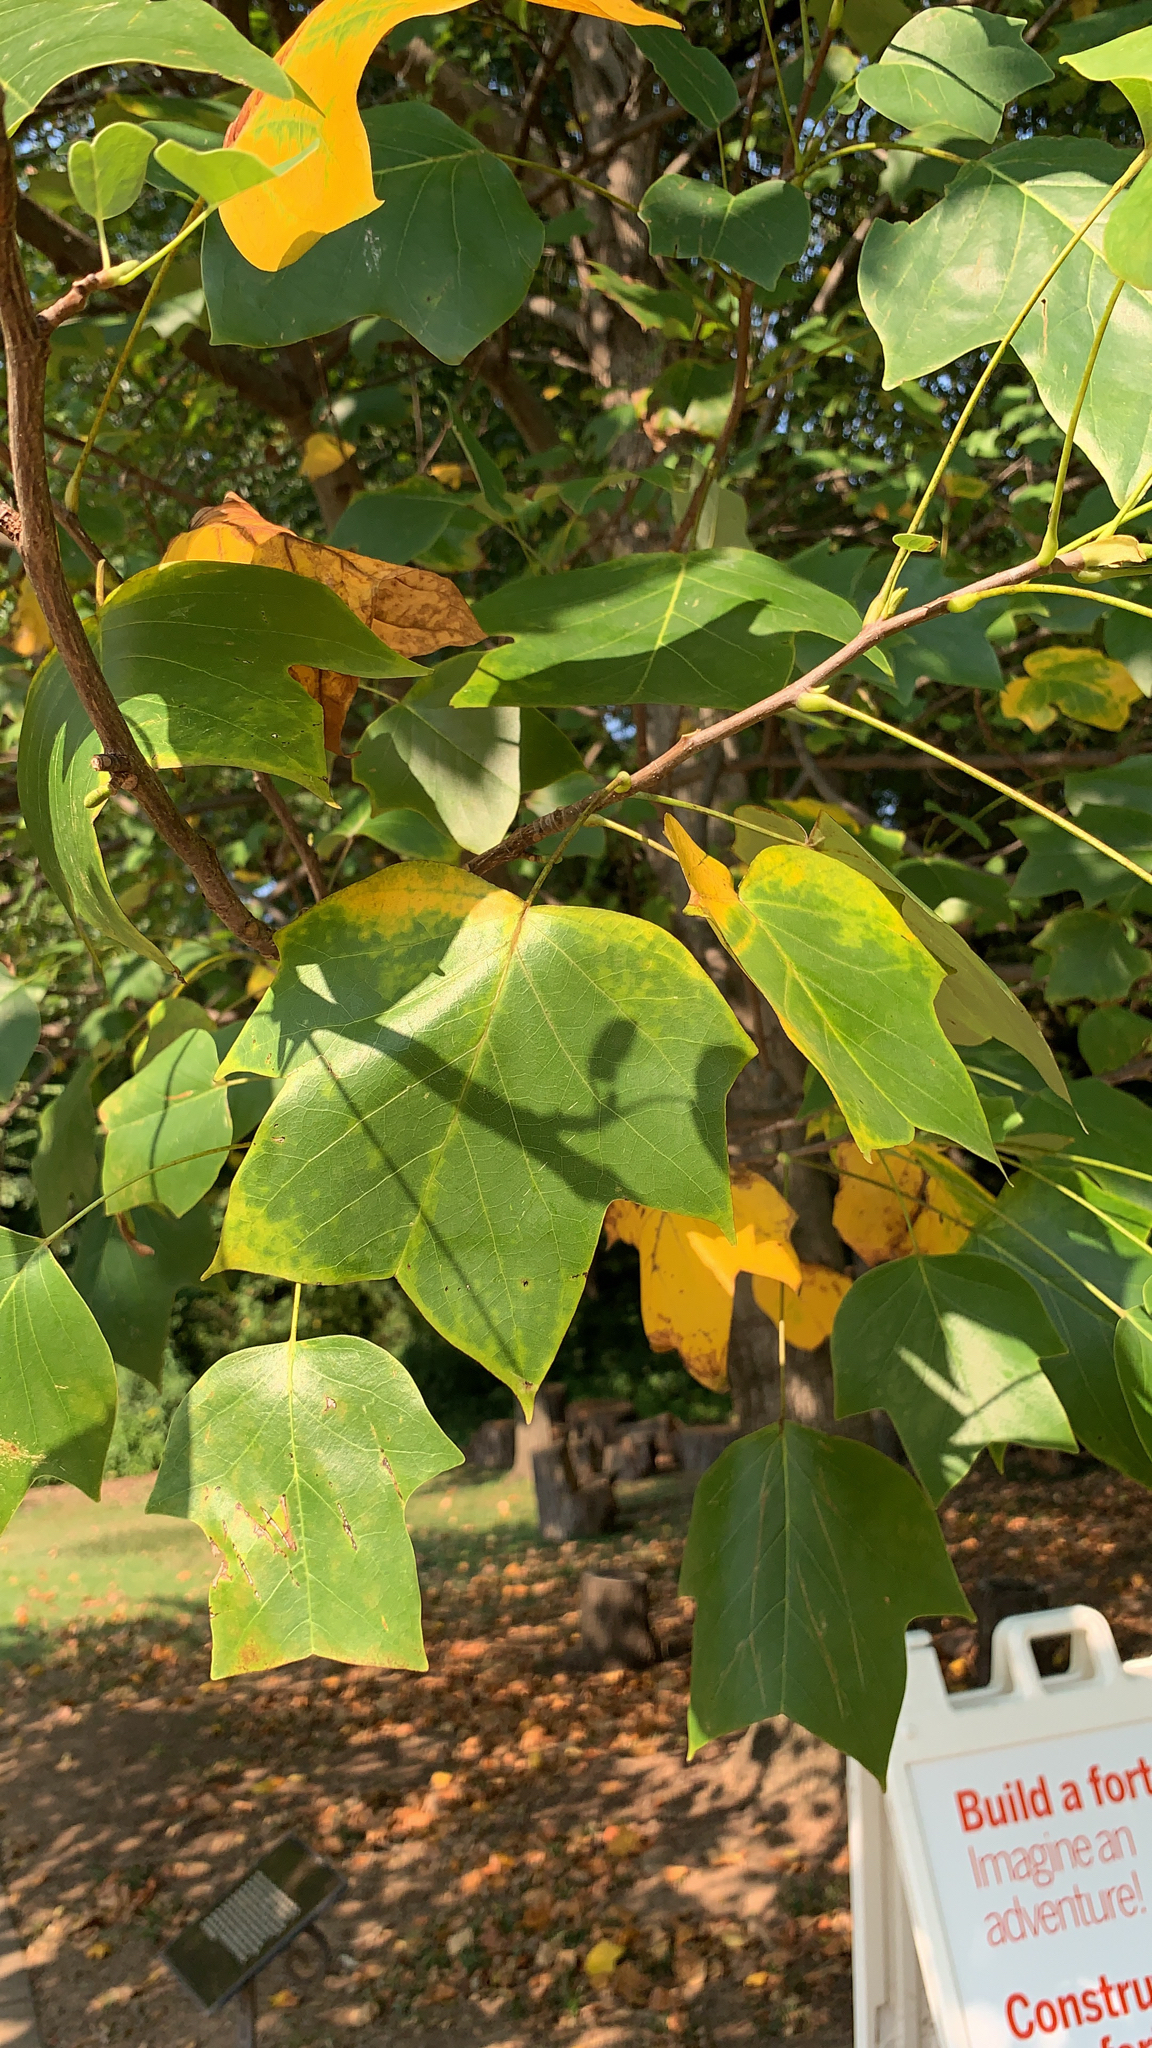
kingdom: Plantae
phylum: Tracheophyta
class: Magnoliopsida
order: Magnoliales
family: Magnoliaceae
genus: Liriodendron
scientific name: Liriodendron tulipifera
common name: Tulip tree
